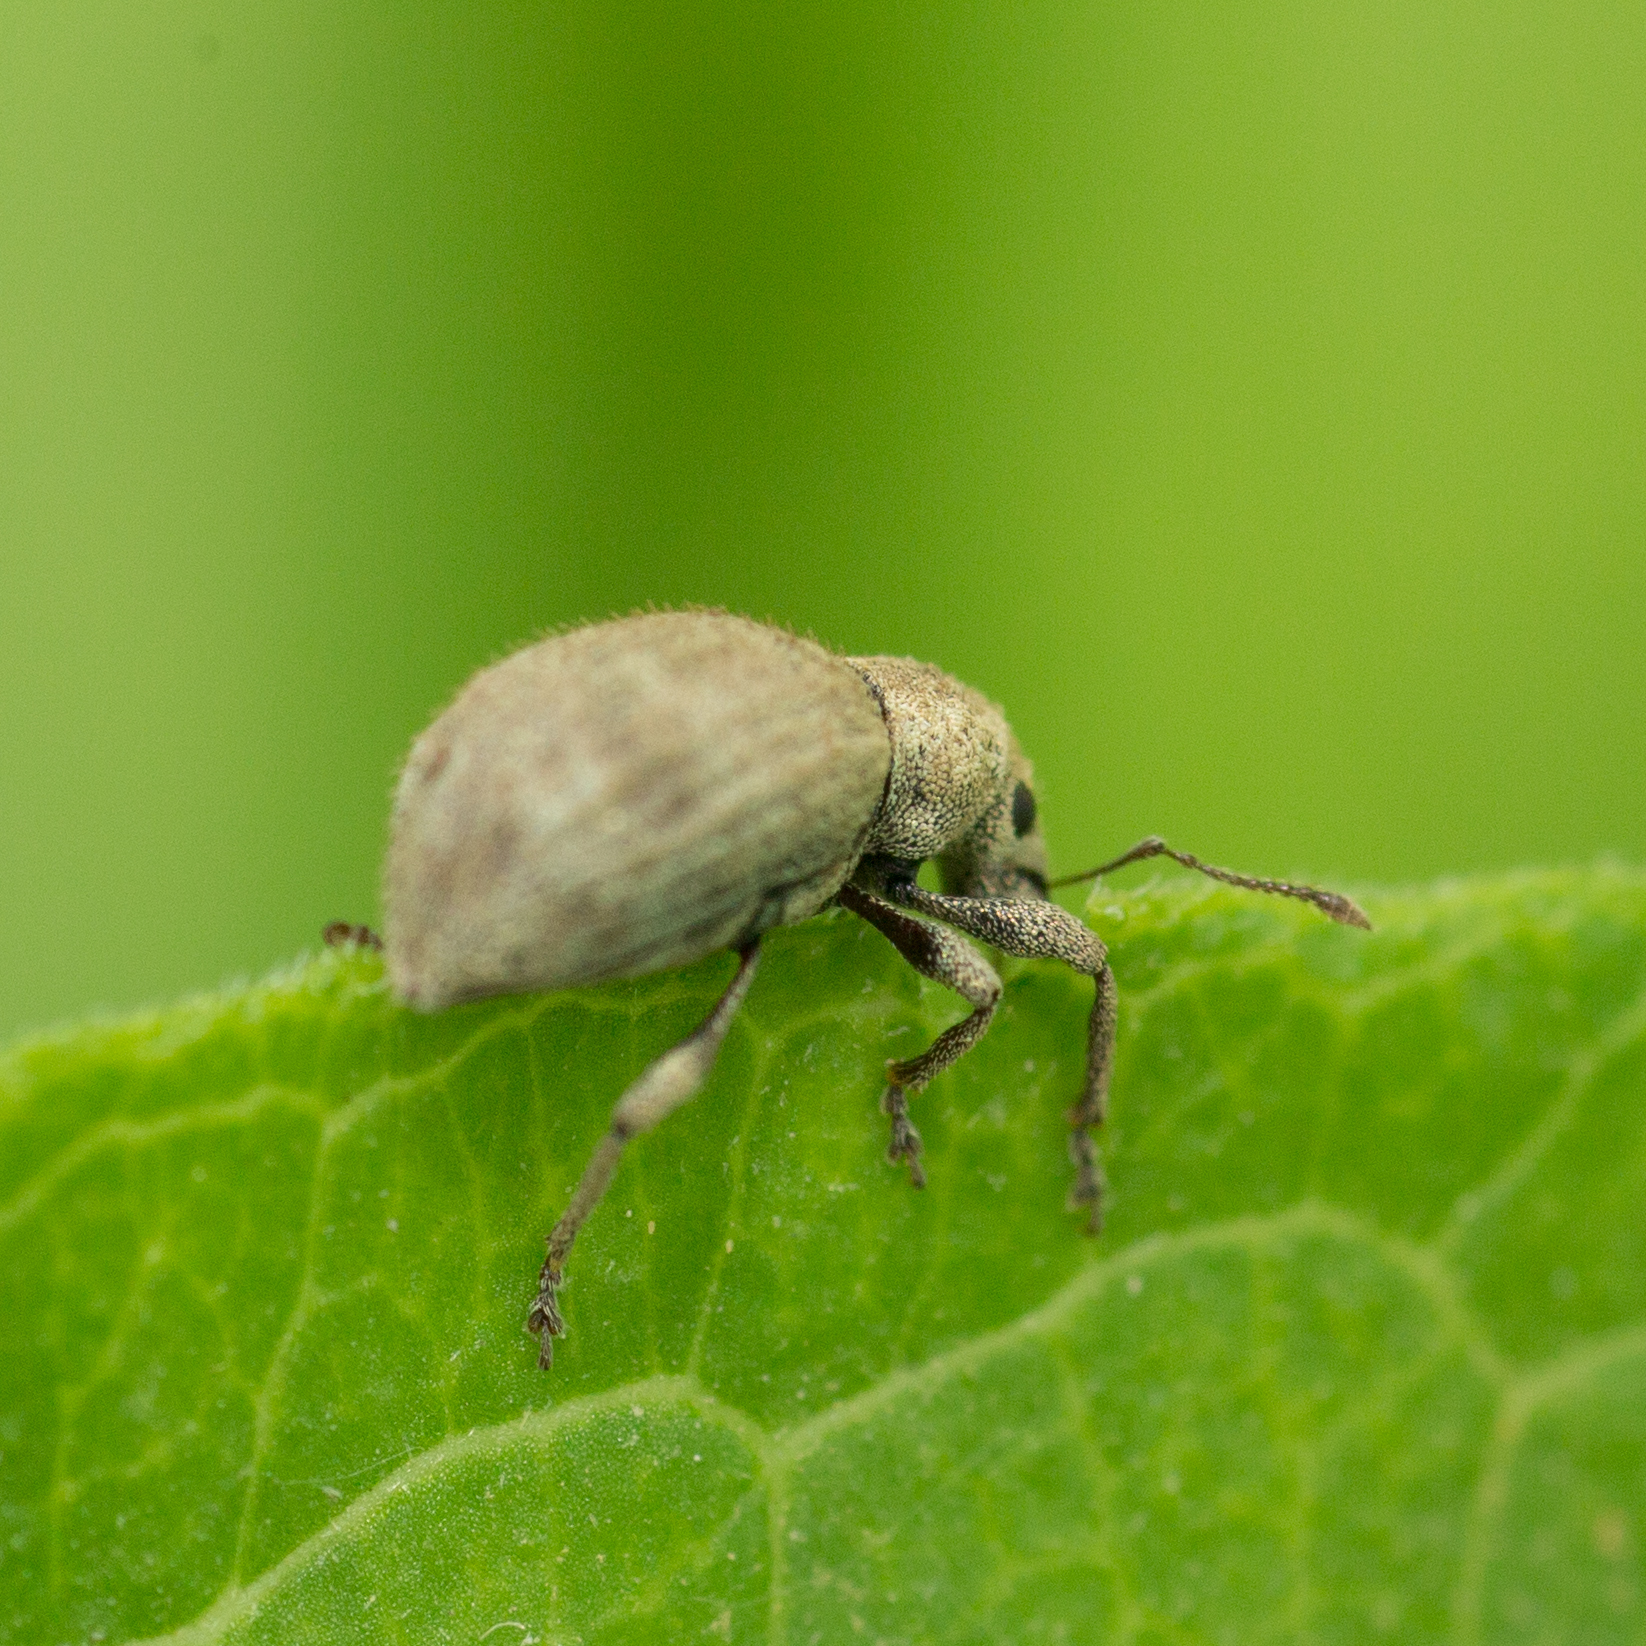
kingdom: Animalia
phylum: Arthropoda
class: Insecta
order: Coleoptera
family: Curculionidae
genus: Sciaphilus
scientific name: Sciaphilus asperatus
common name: Weevil
